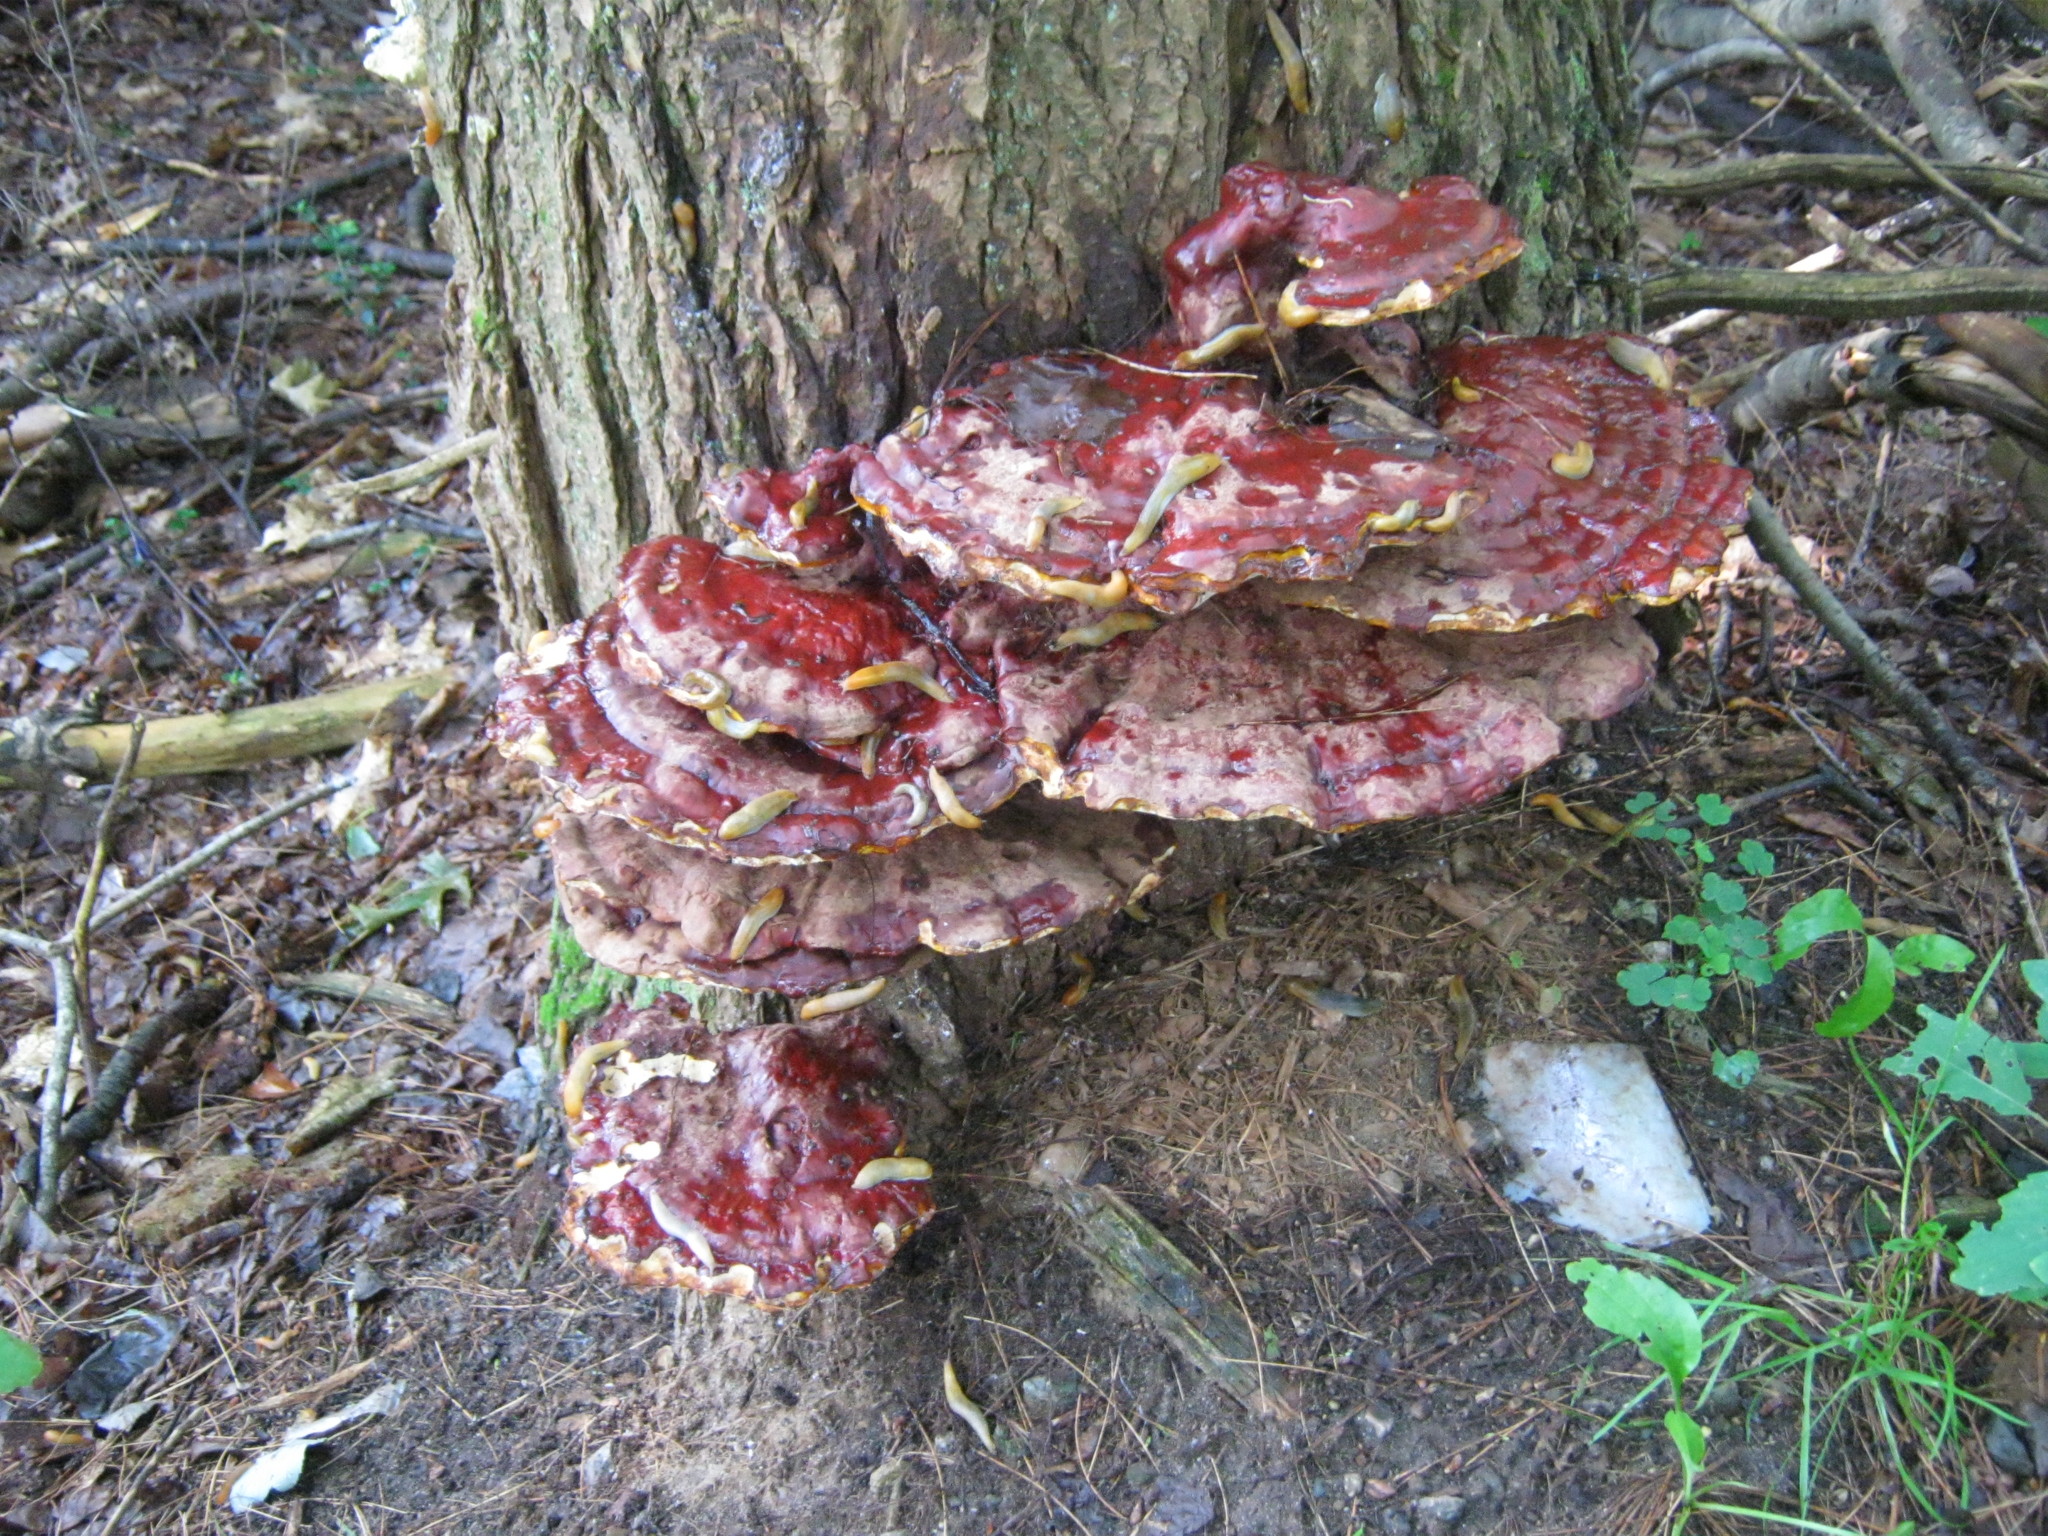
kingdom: Fungi
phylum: Basidiomycota
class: Agaricomycetes
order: Polyporales
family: Polyporaceae
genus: Ganoderma
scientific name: Ganoderma tsugae
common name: Hemlock varnish shelf
